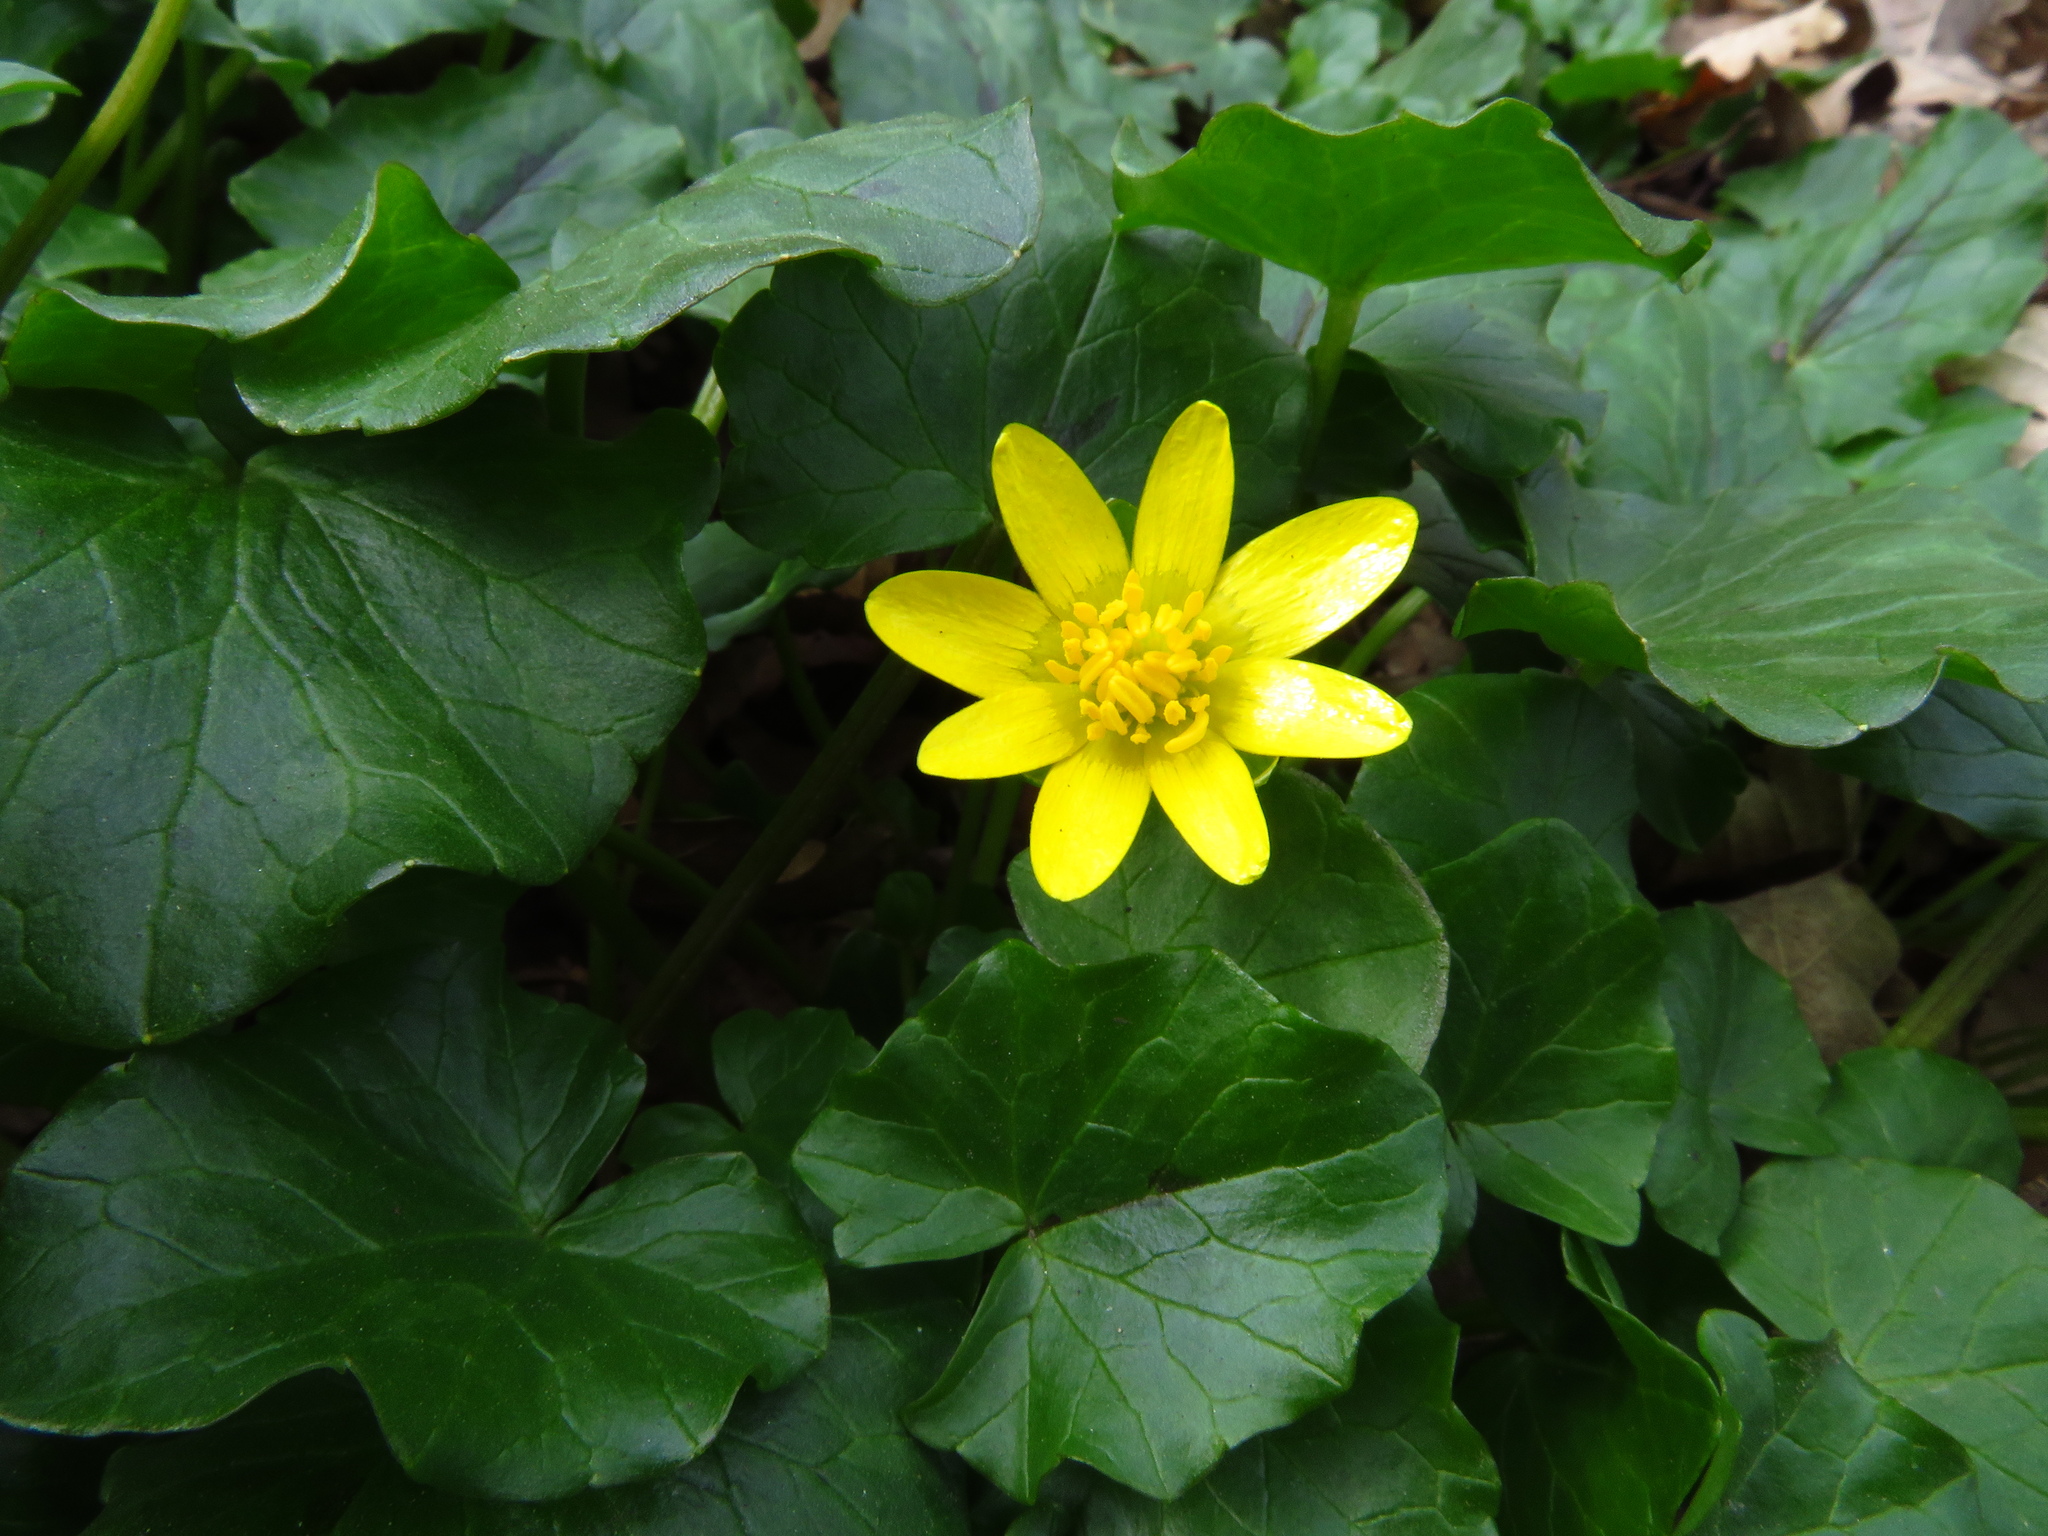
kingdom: Plantae
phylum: Tracheophyta
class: Magnoliopsida
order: Ranunculales
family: Ranunculaceae
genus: Ficaria
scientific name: Ficaria verna
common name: Lesser celandine
